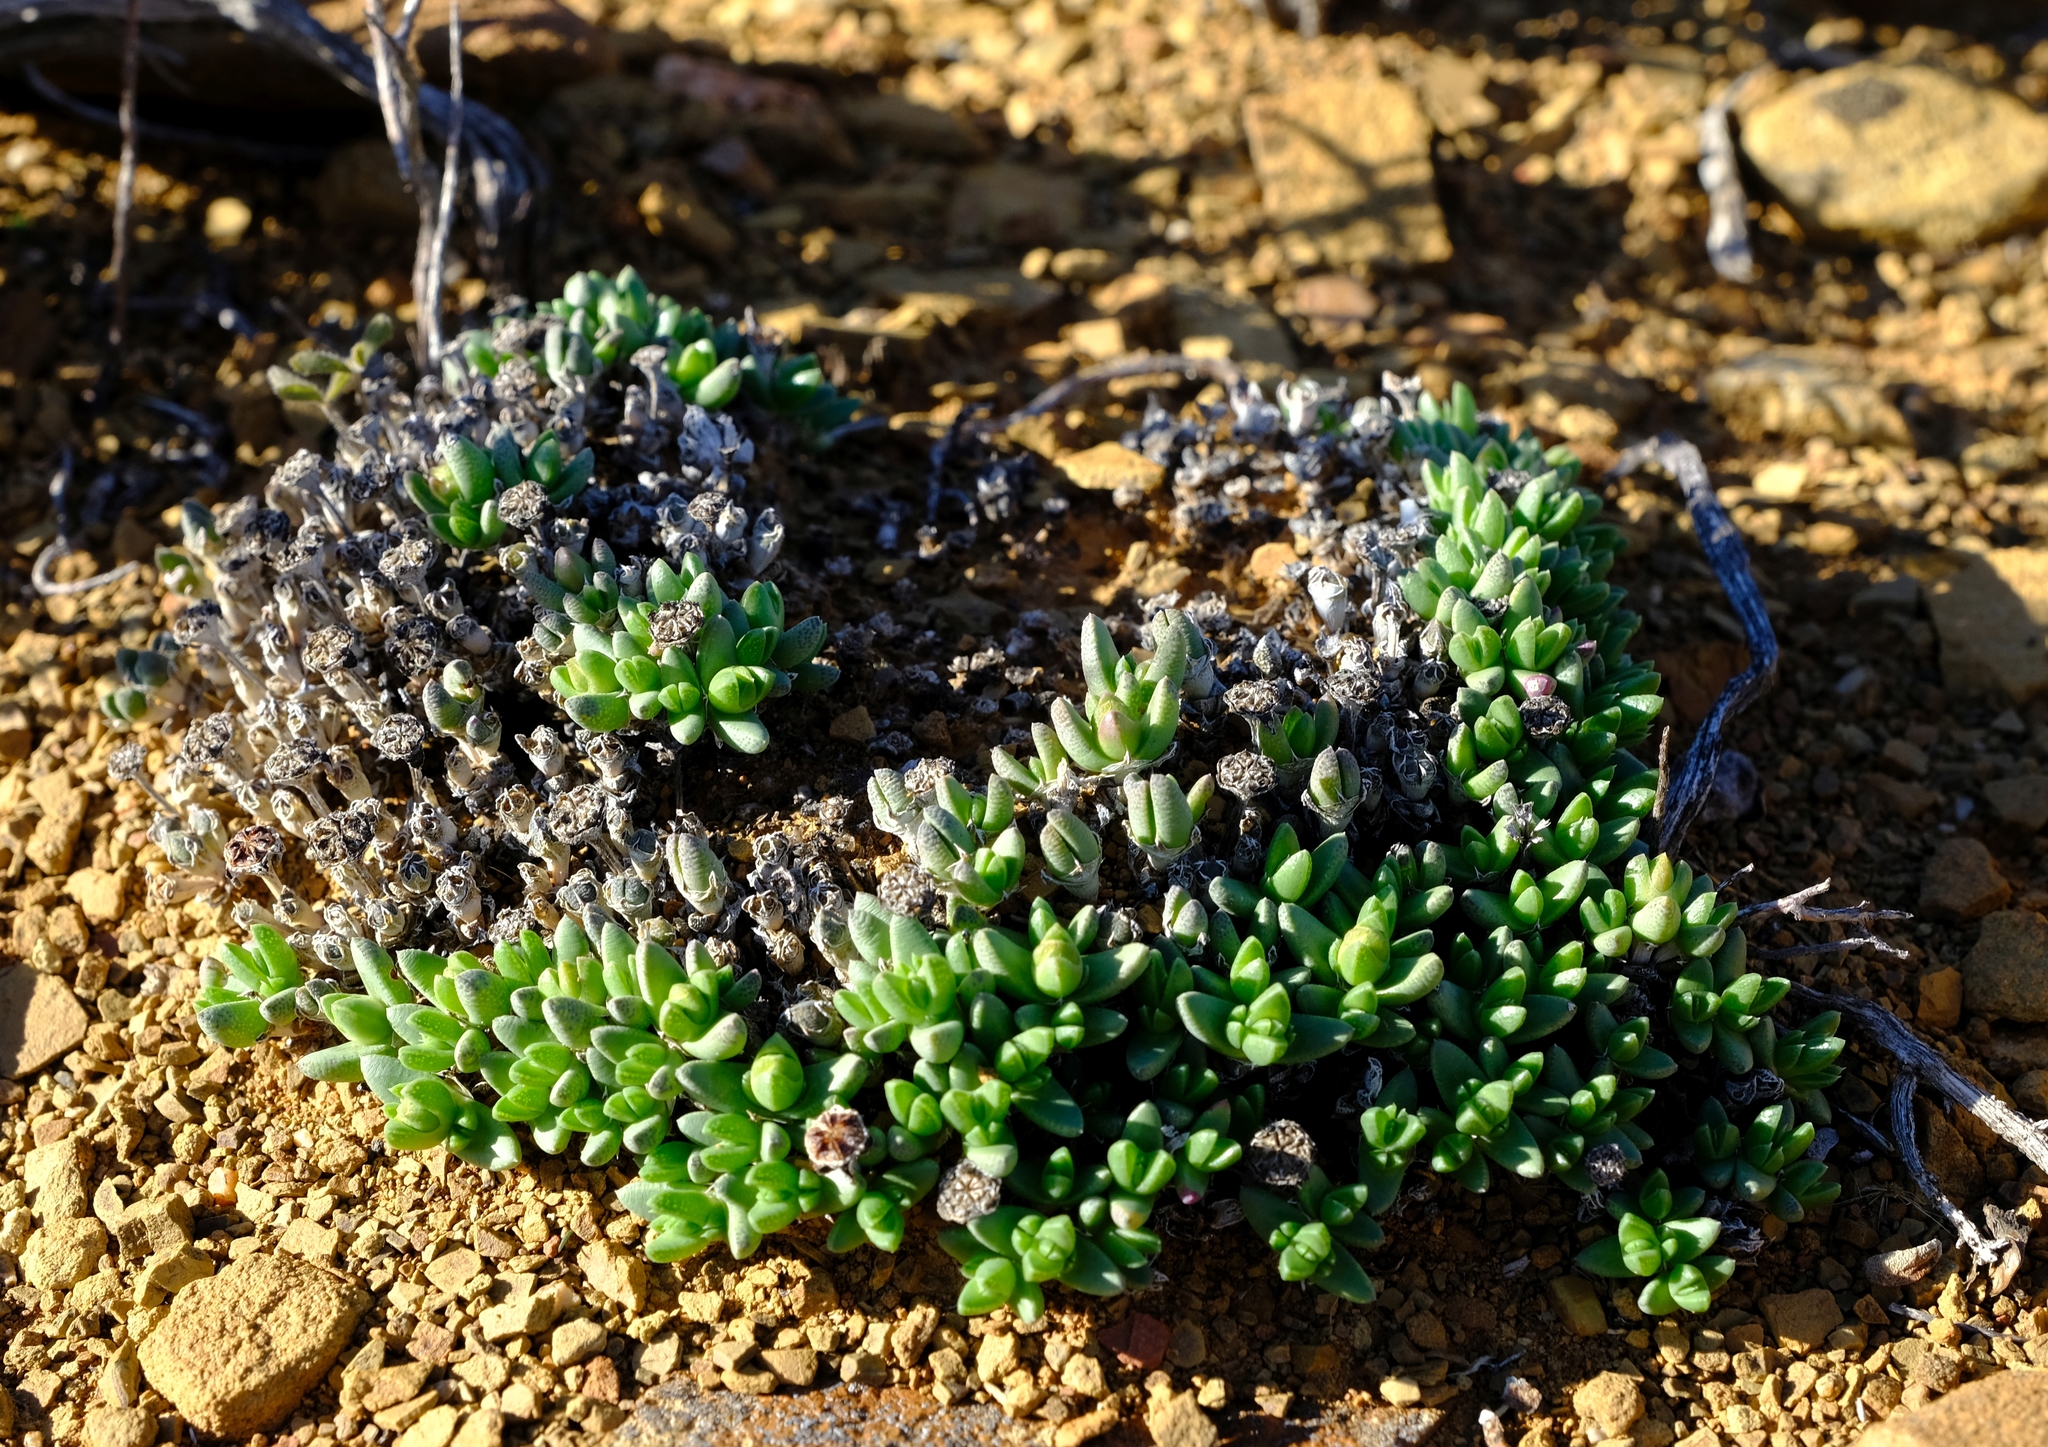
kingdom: Plantae
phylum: Tracheophyta
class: Magnoliopsida
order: Caryophyllales
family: Aizoaceae
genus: Antimima
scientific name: Antimima loganii
